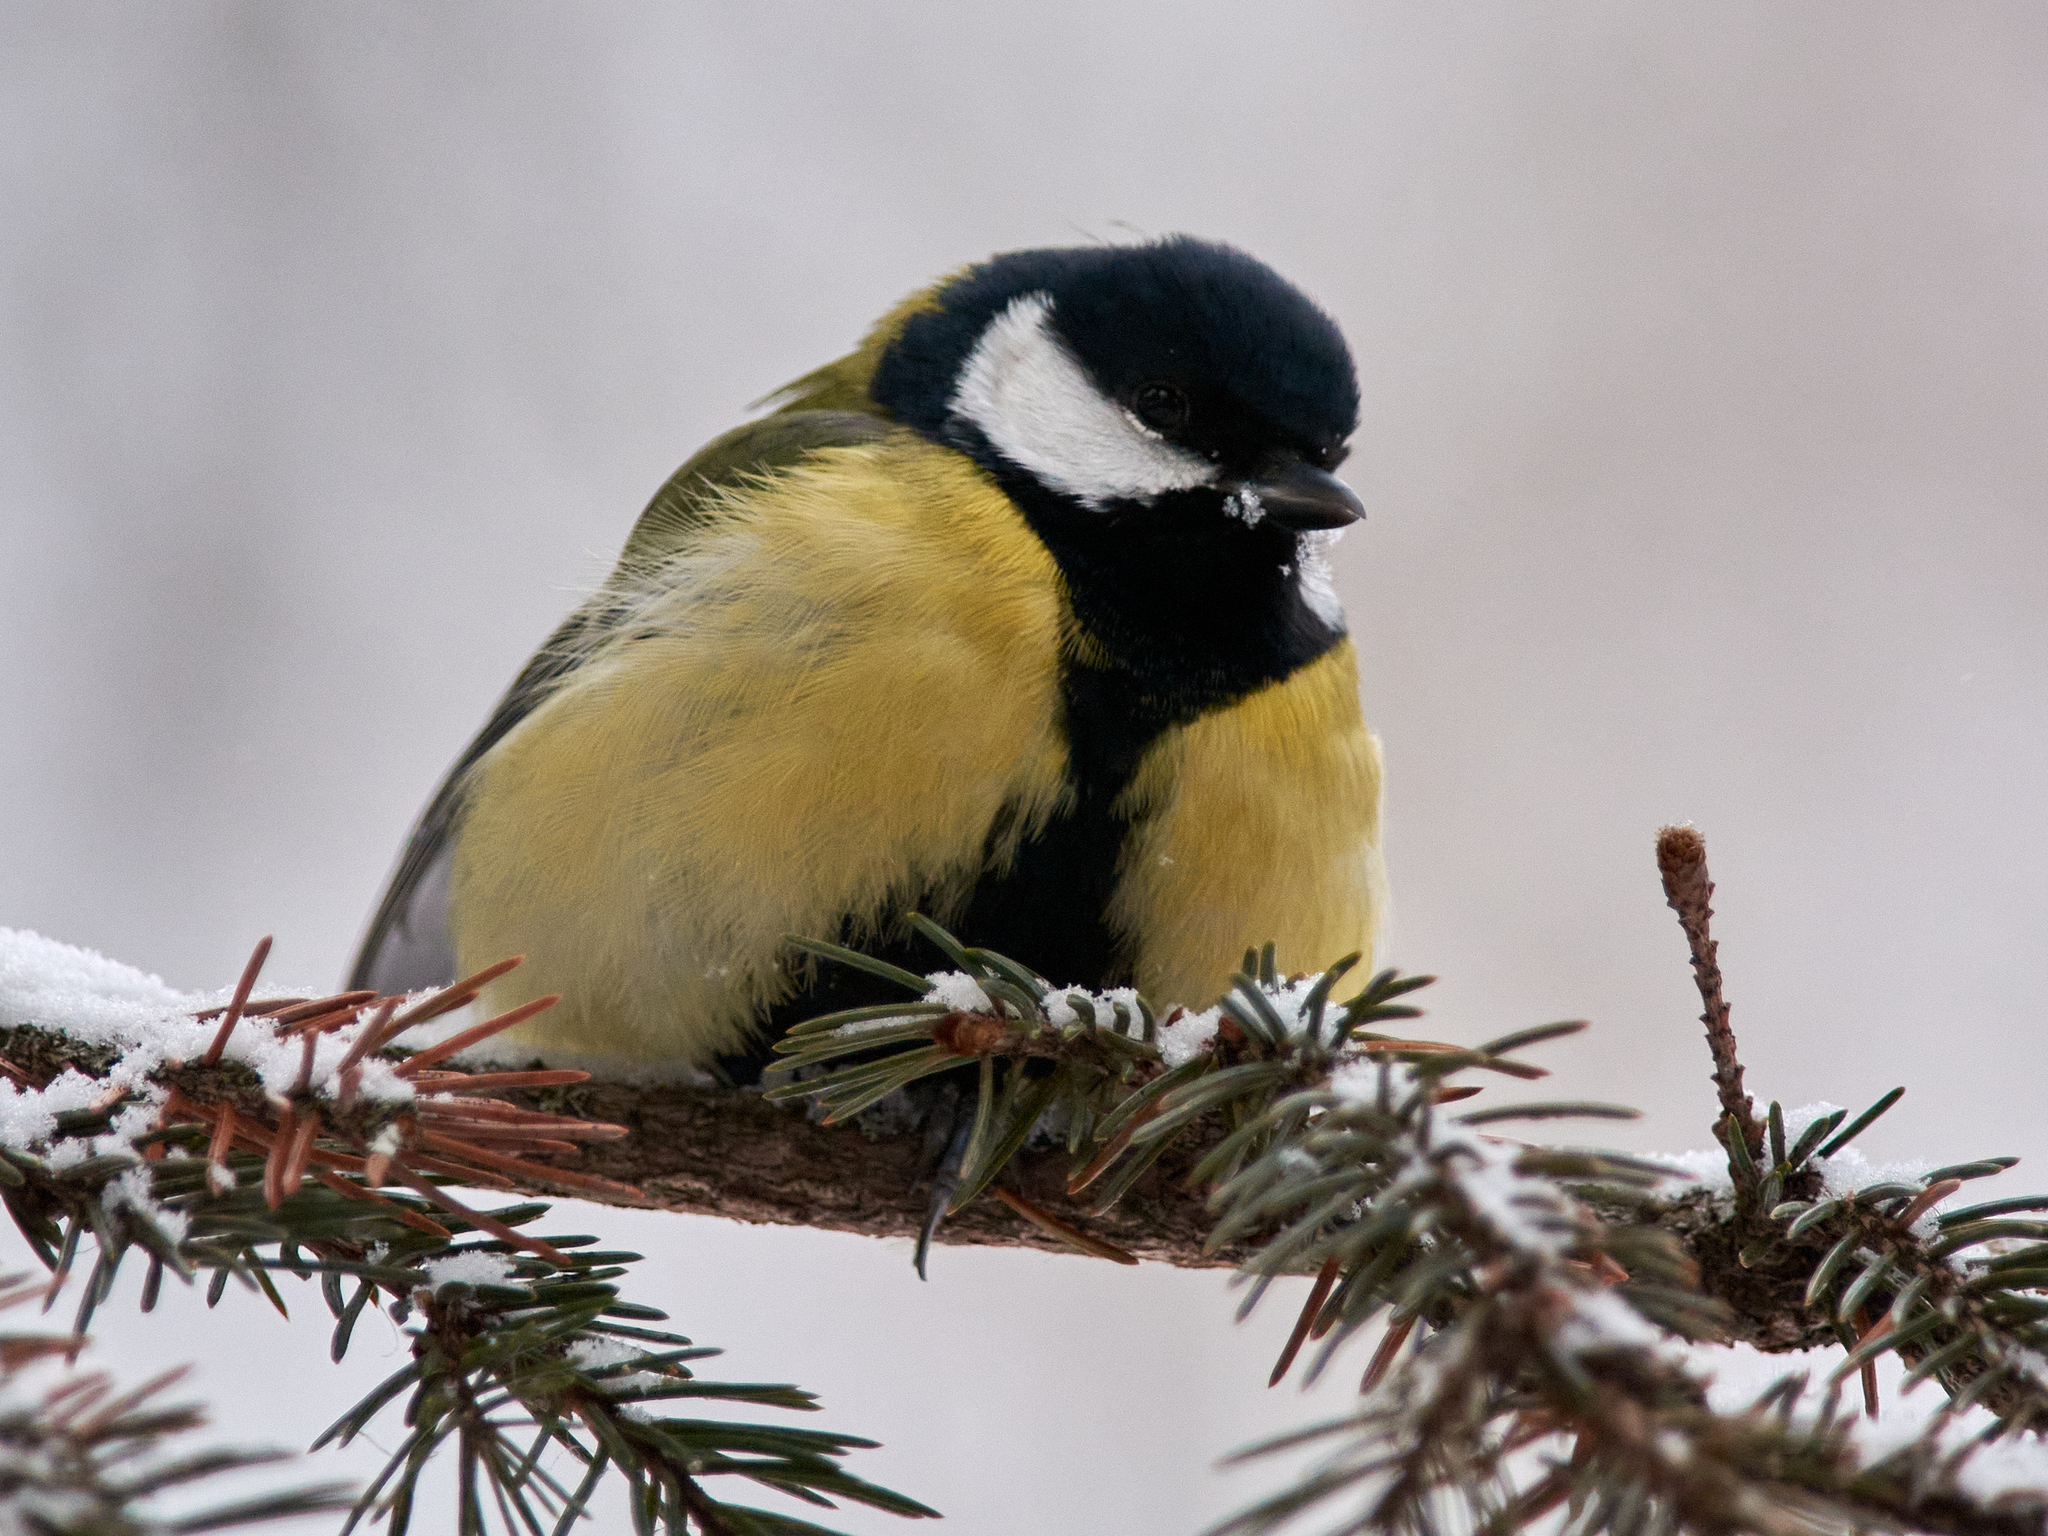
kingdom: Animalia
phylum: Chordata
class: Aves
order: Passeriformes
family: Paridae
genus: Parus
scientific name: Parus major
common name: Great tit
